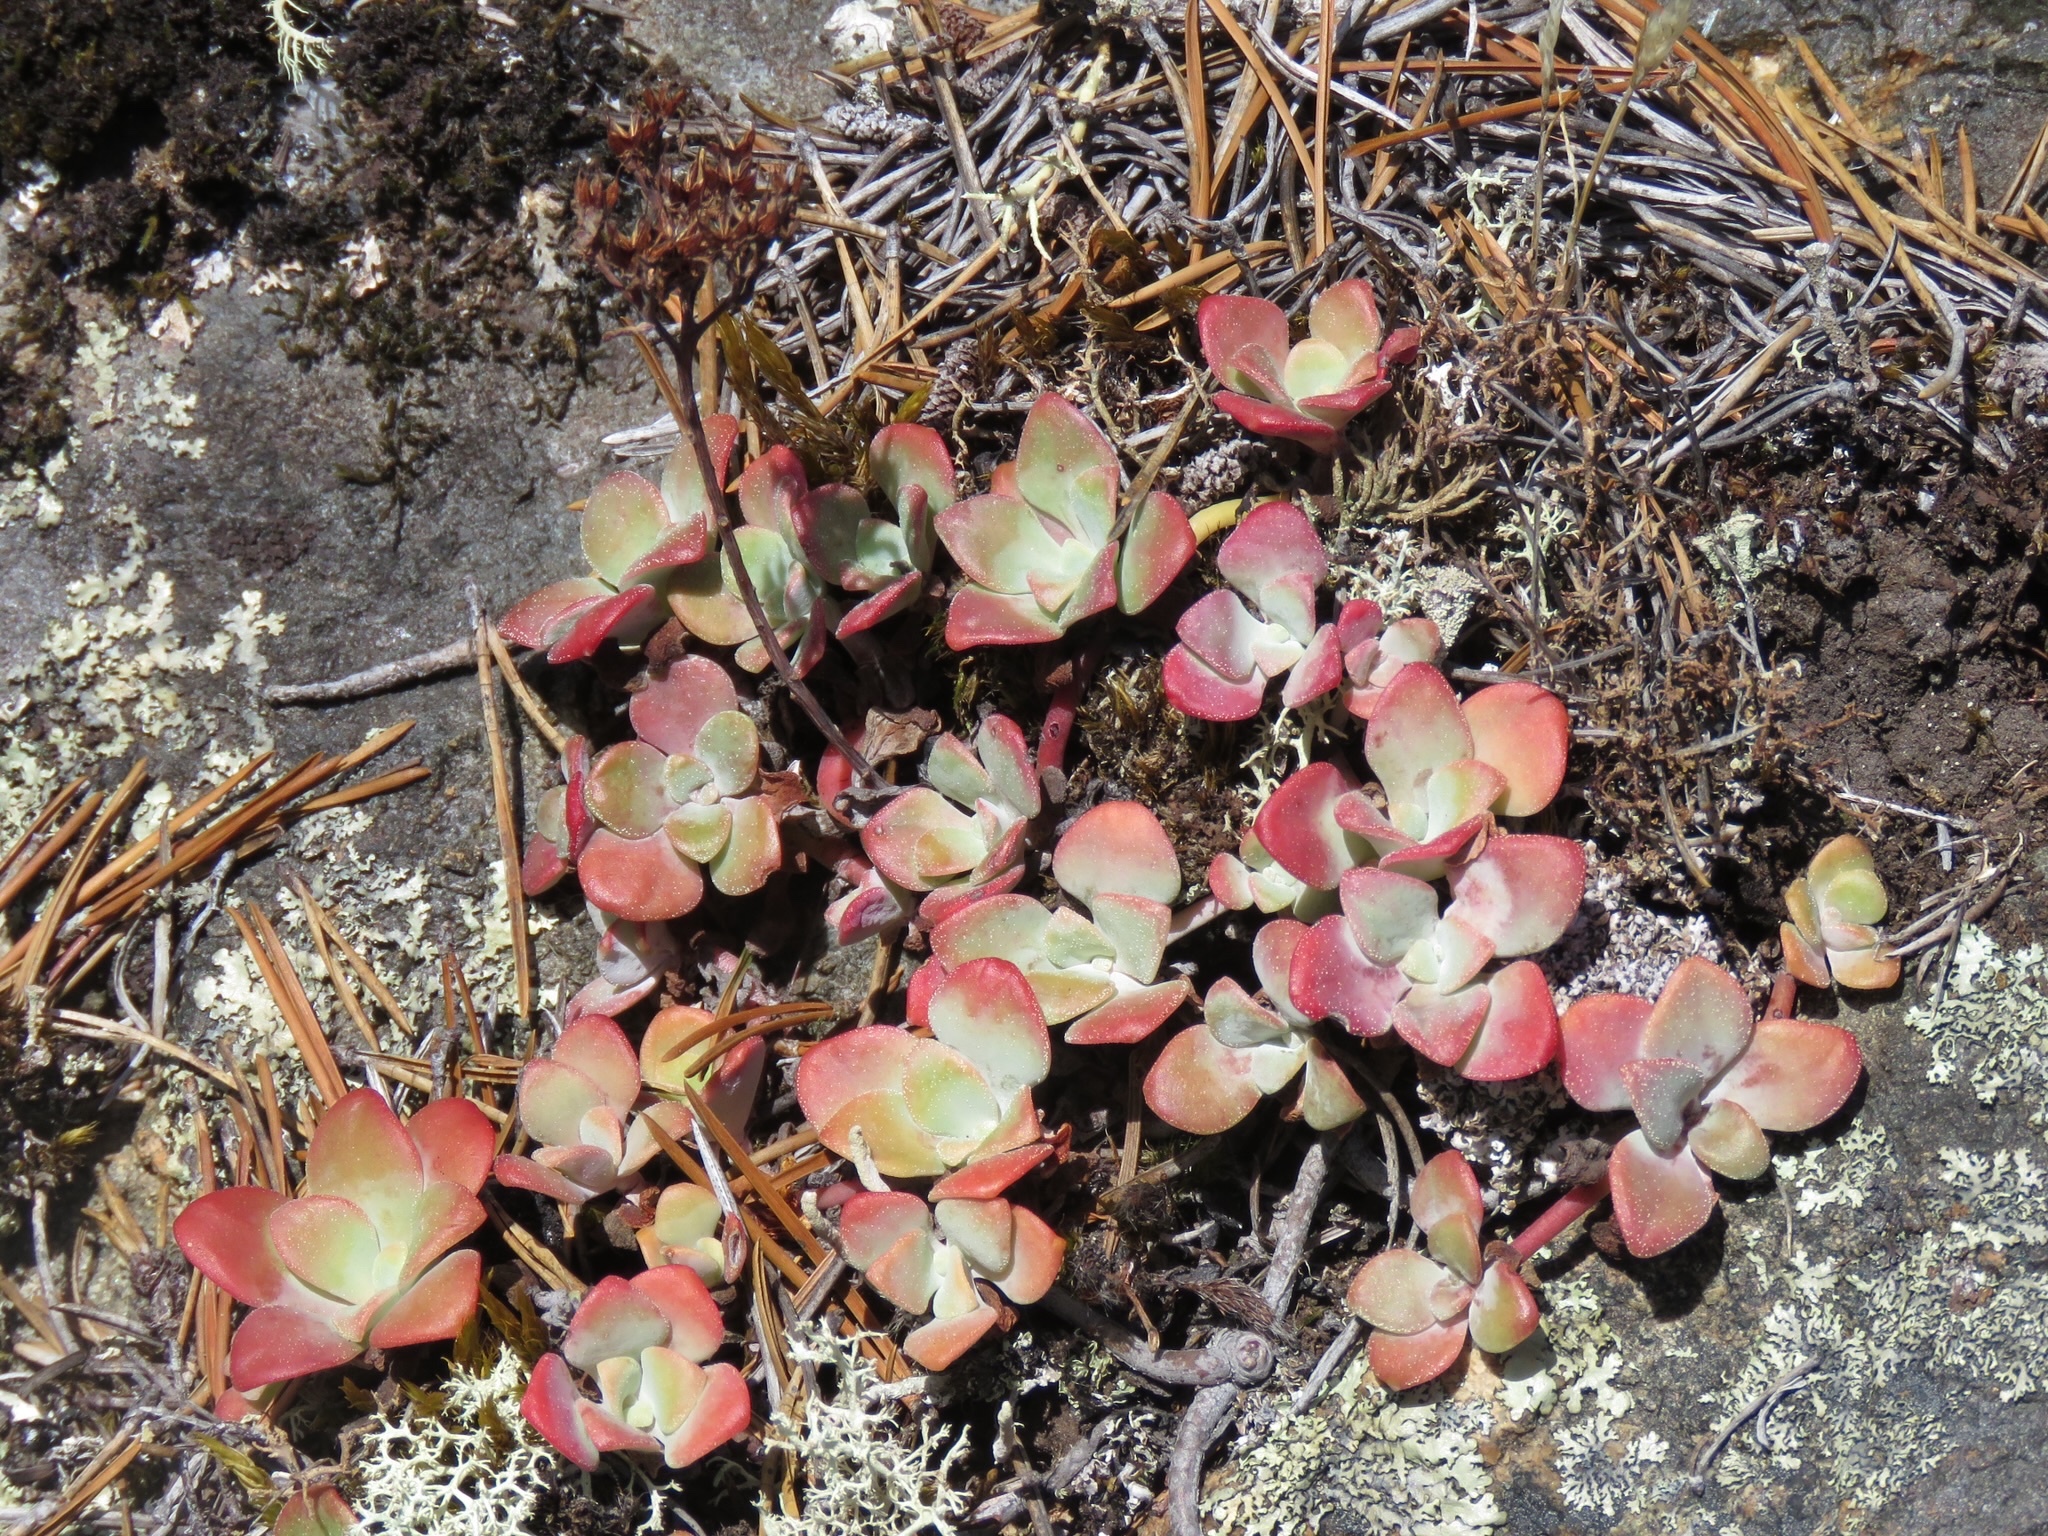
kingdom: Plantae
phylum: Tracheophyta
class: Magnoliopsida
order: Saxifragales
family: Crassulaceae
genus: Sedum
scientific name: Sedum spathulifolium
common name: Colorado stonecrop
